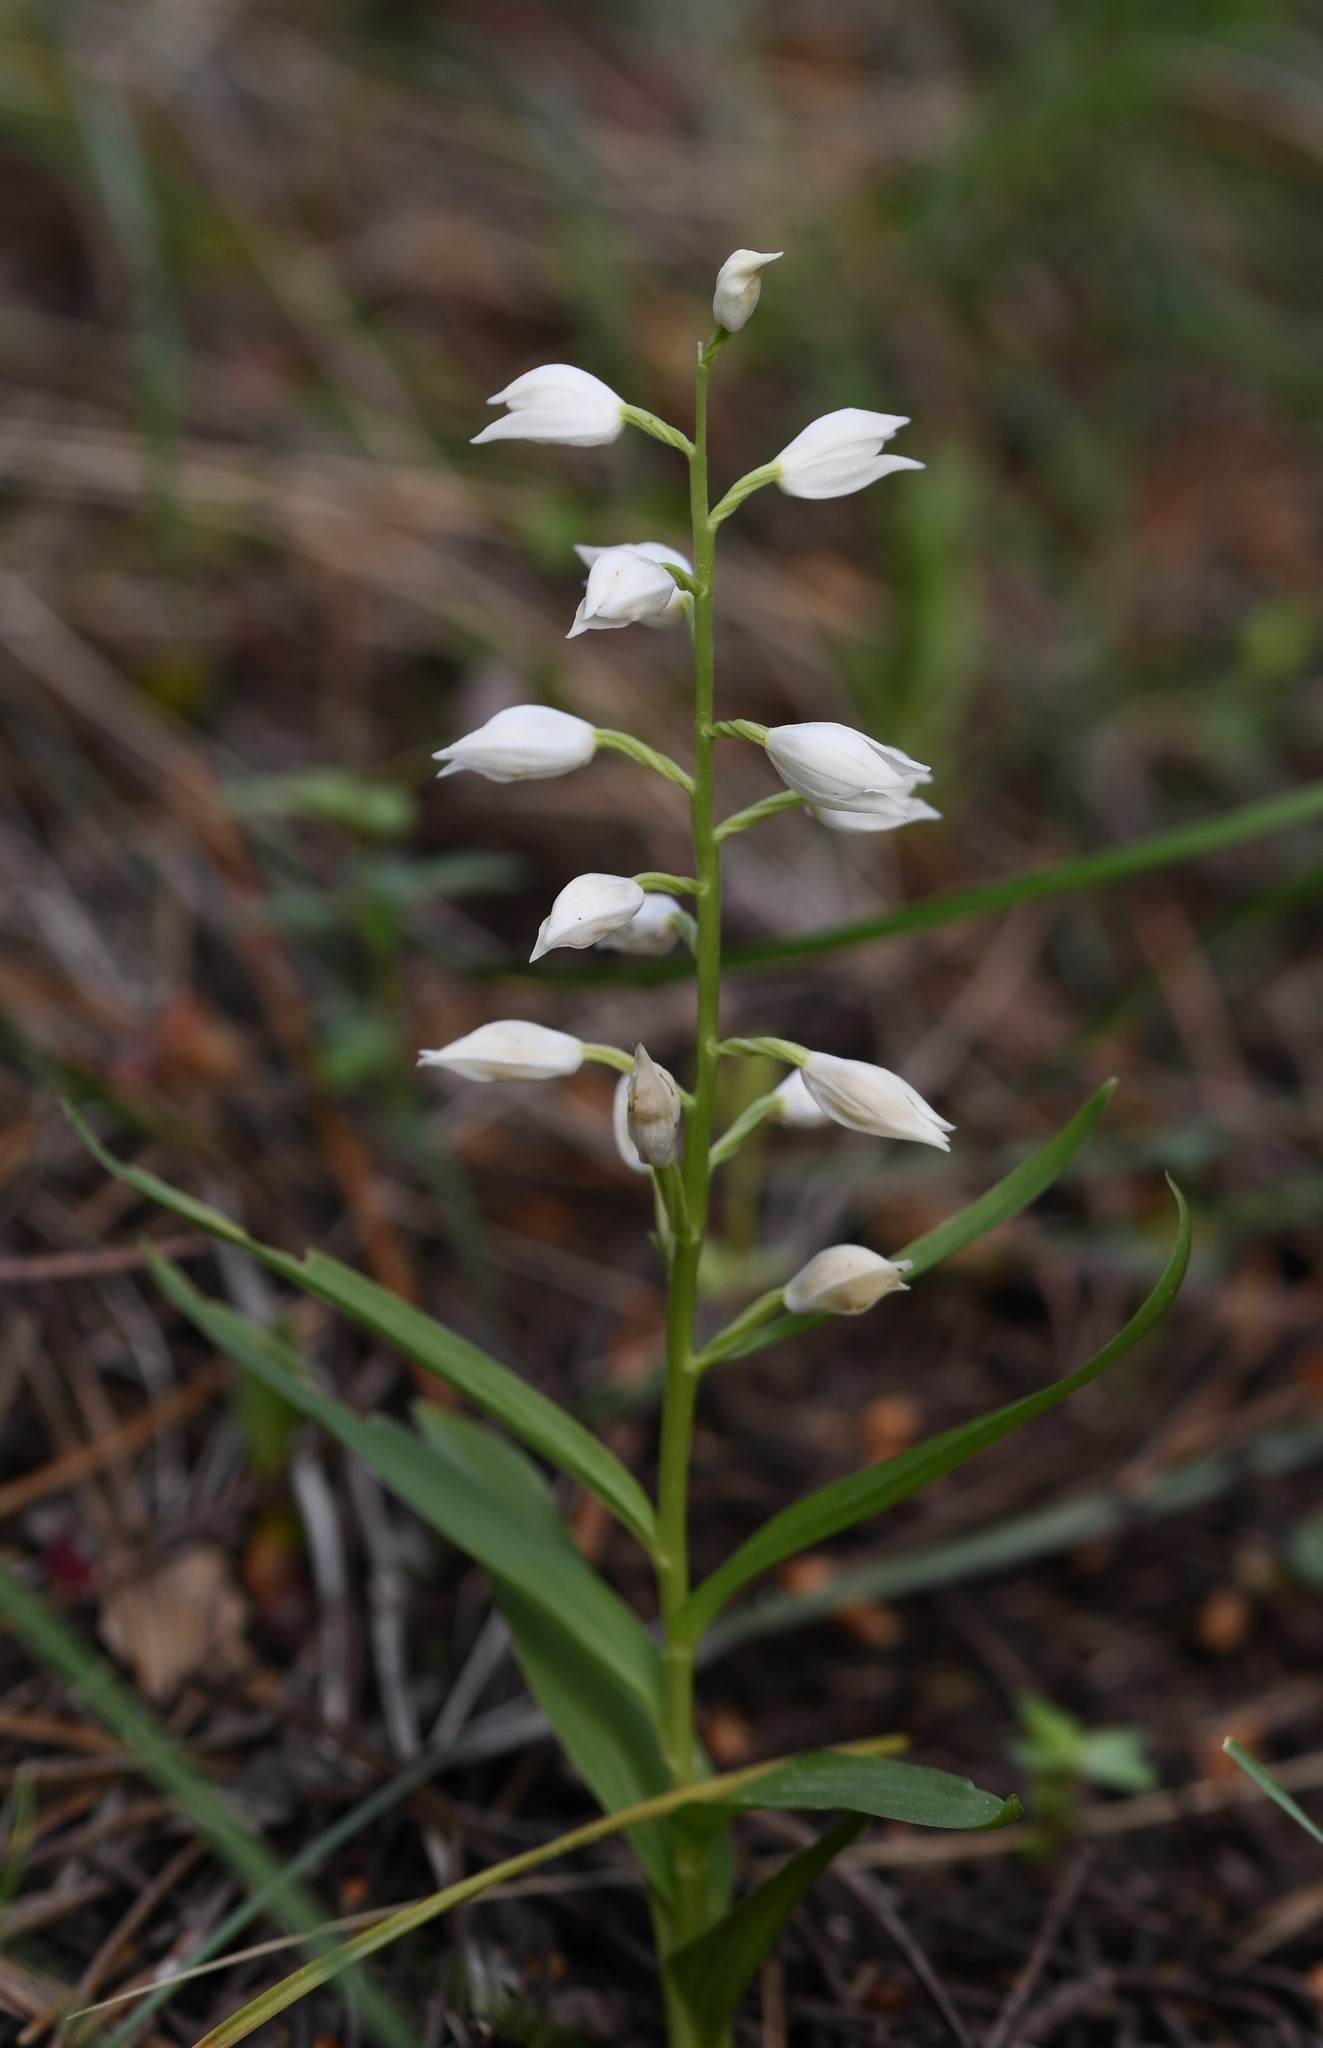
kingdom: Plantae
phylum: Tracheophyta
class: Liliopsida
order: Asparagales
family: Orchidaceae
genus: Cephalanthera
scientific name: Cephalanthera longifolia
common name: Narrow-leaved helleborine
